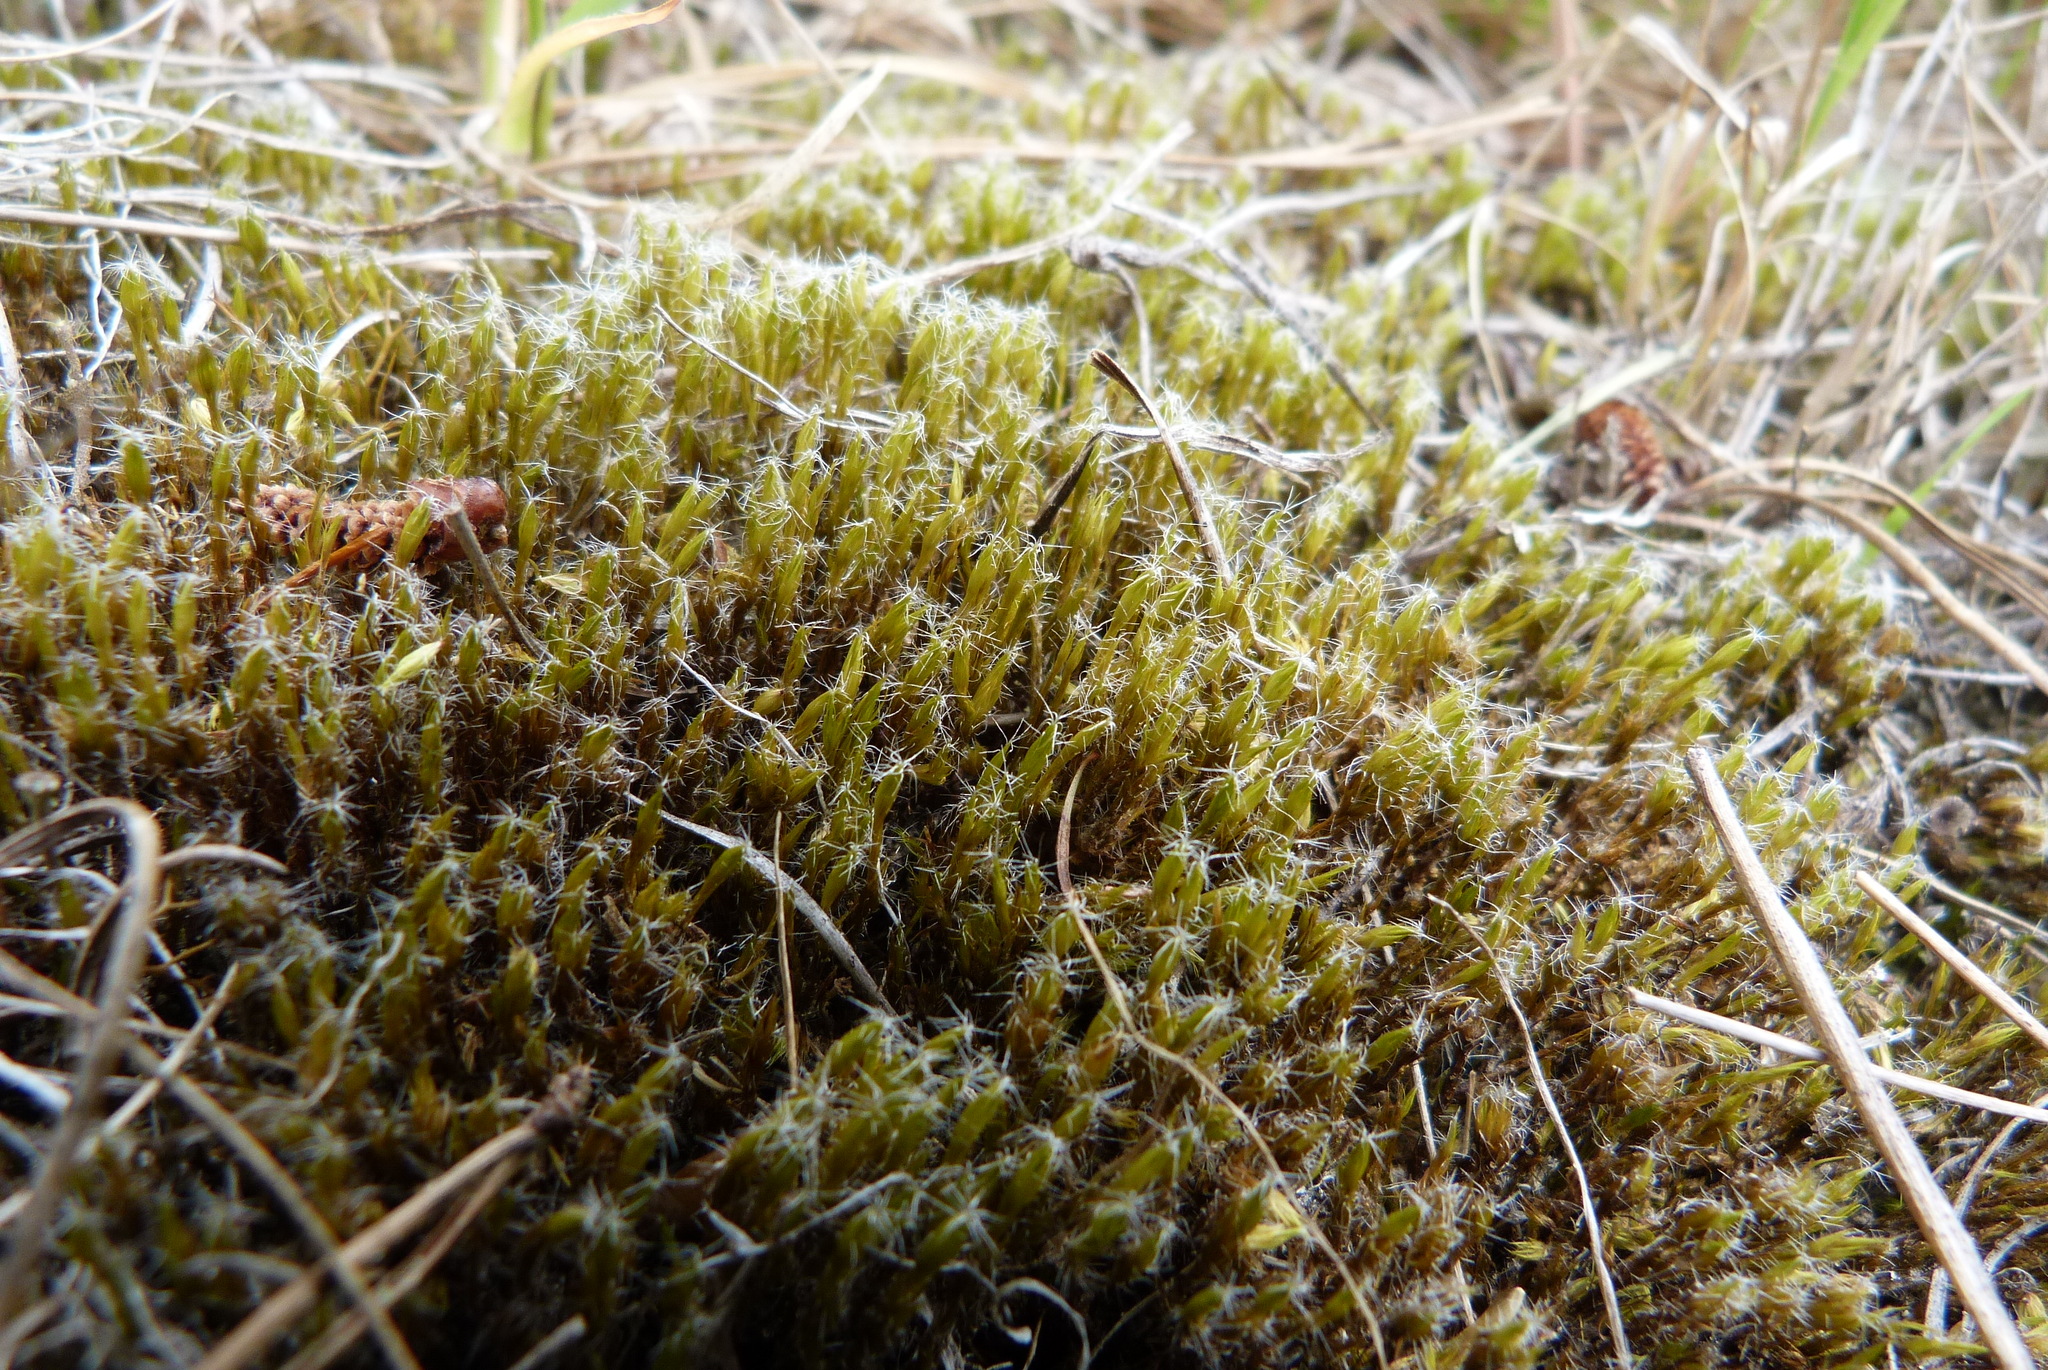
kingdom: Plantae
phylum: Bryophyta
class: Bryopsida
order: Dicranales
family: Leucobryaceae
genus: Campylopus
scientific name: Campylopus introflexus
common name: Heath star moss
